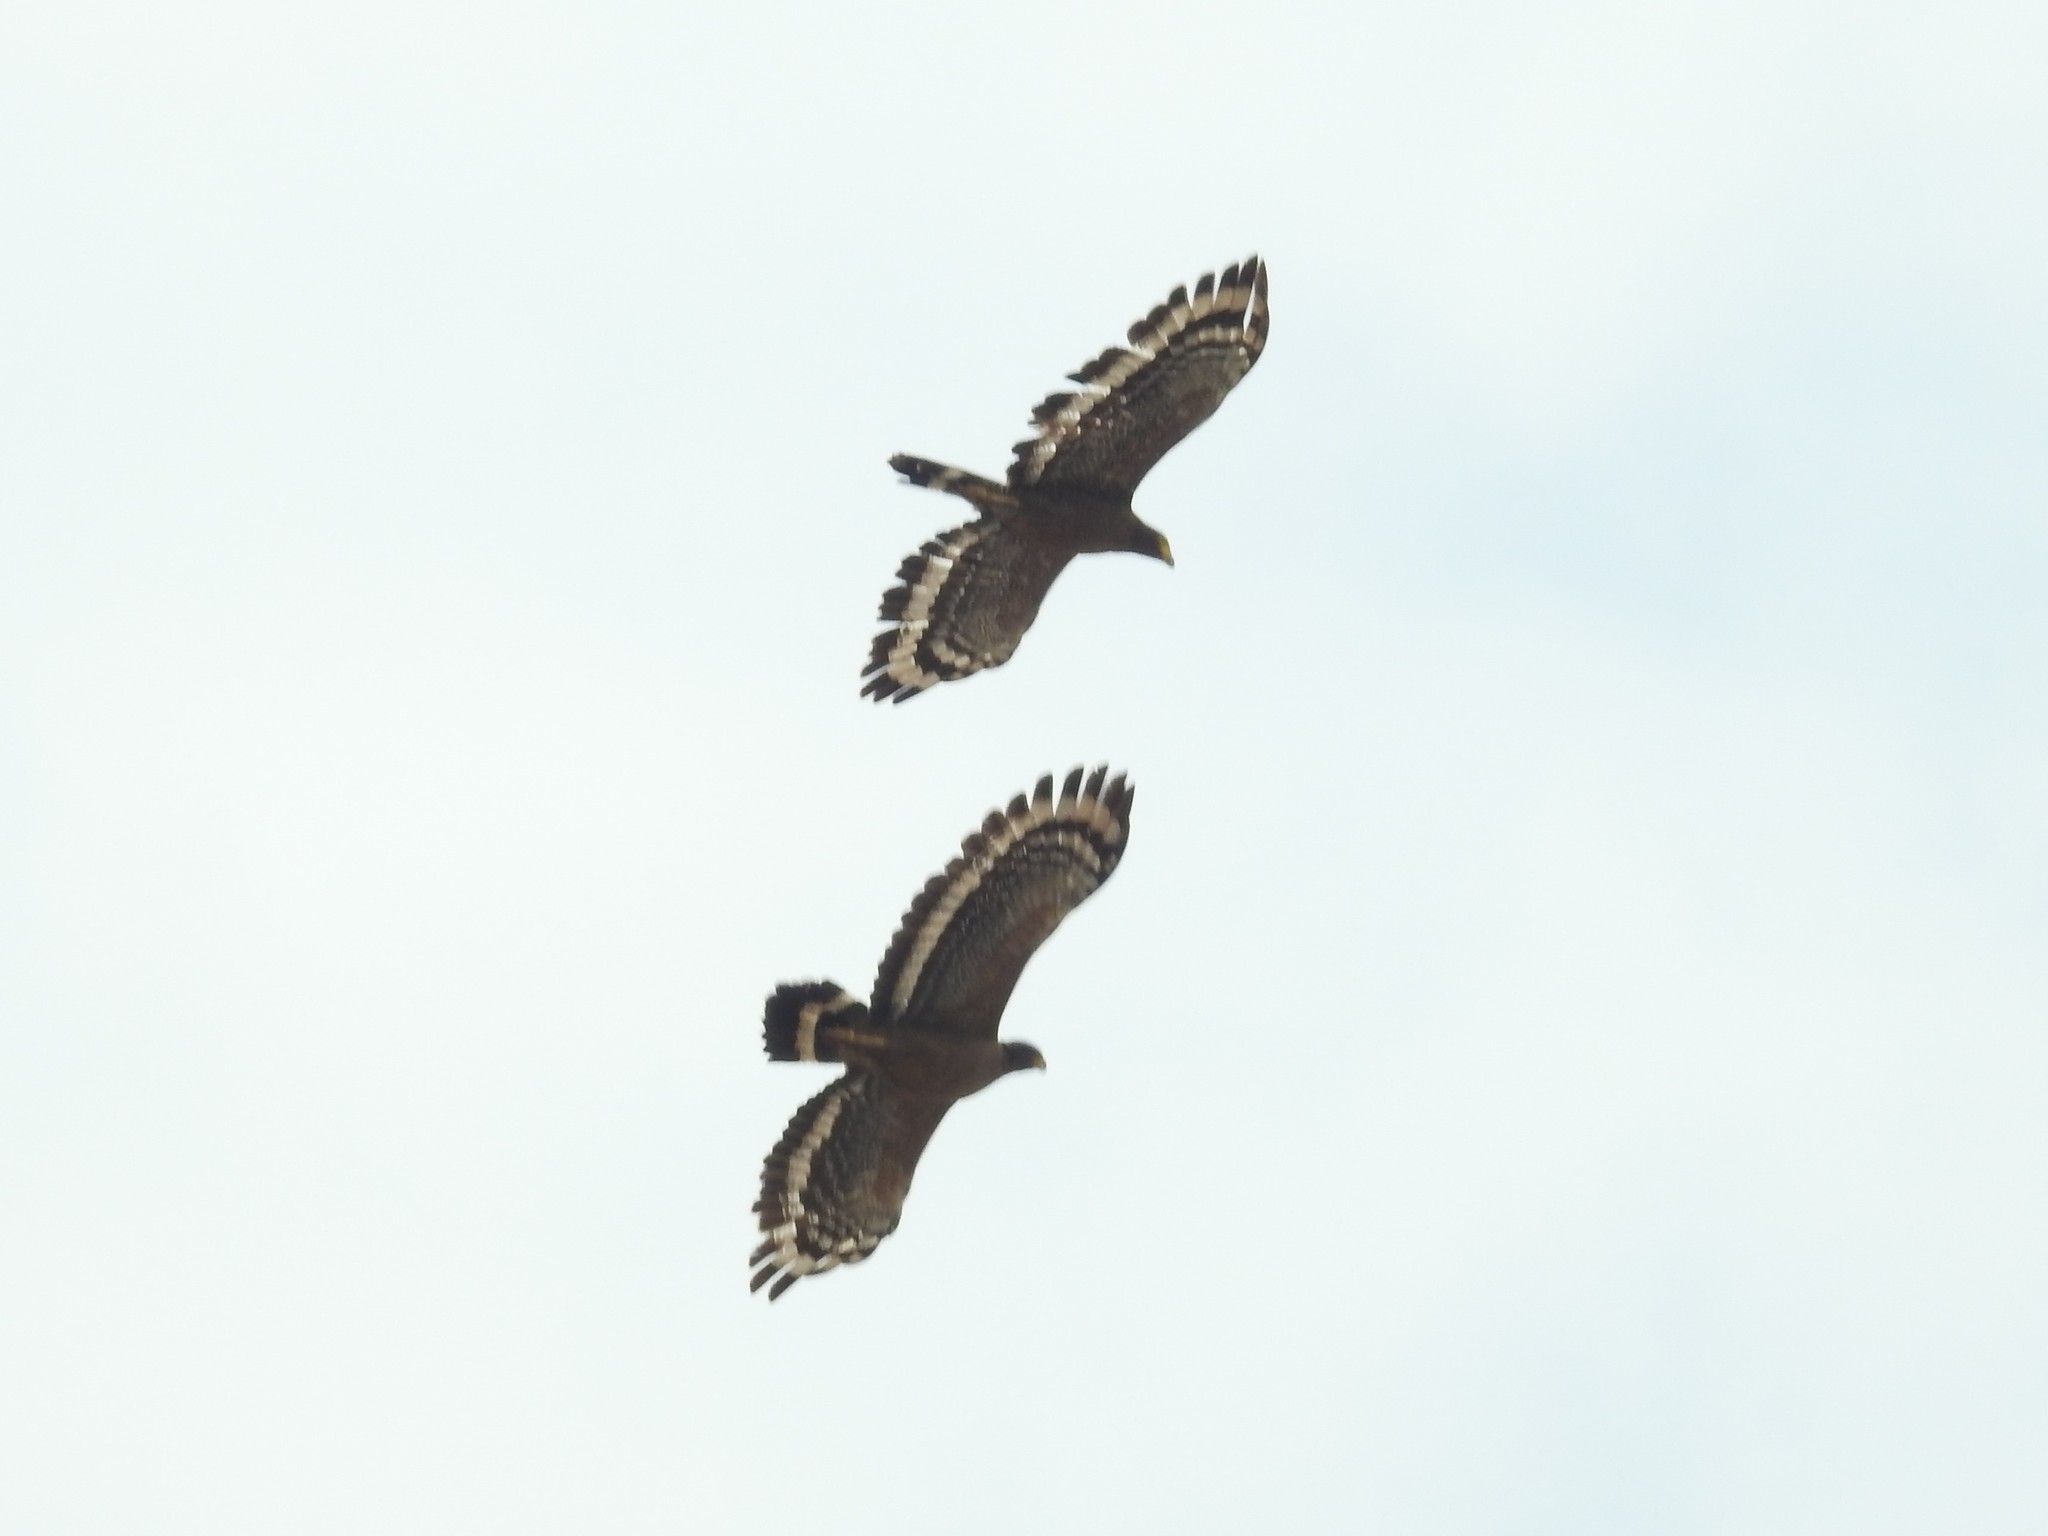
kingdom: Animalia
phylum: Chordata
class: Aves
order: Accipitriformes
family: Accipitridae
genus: Spilornis
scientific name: Spilornis cheela
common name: Crested serpent eagle
